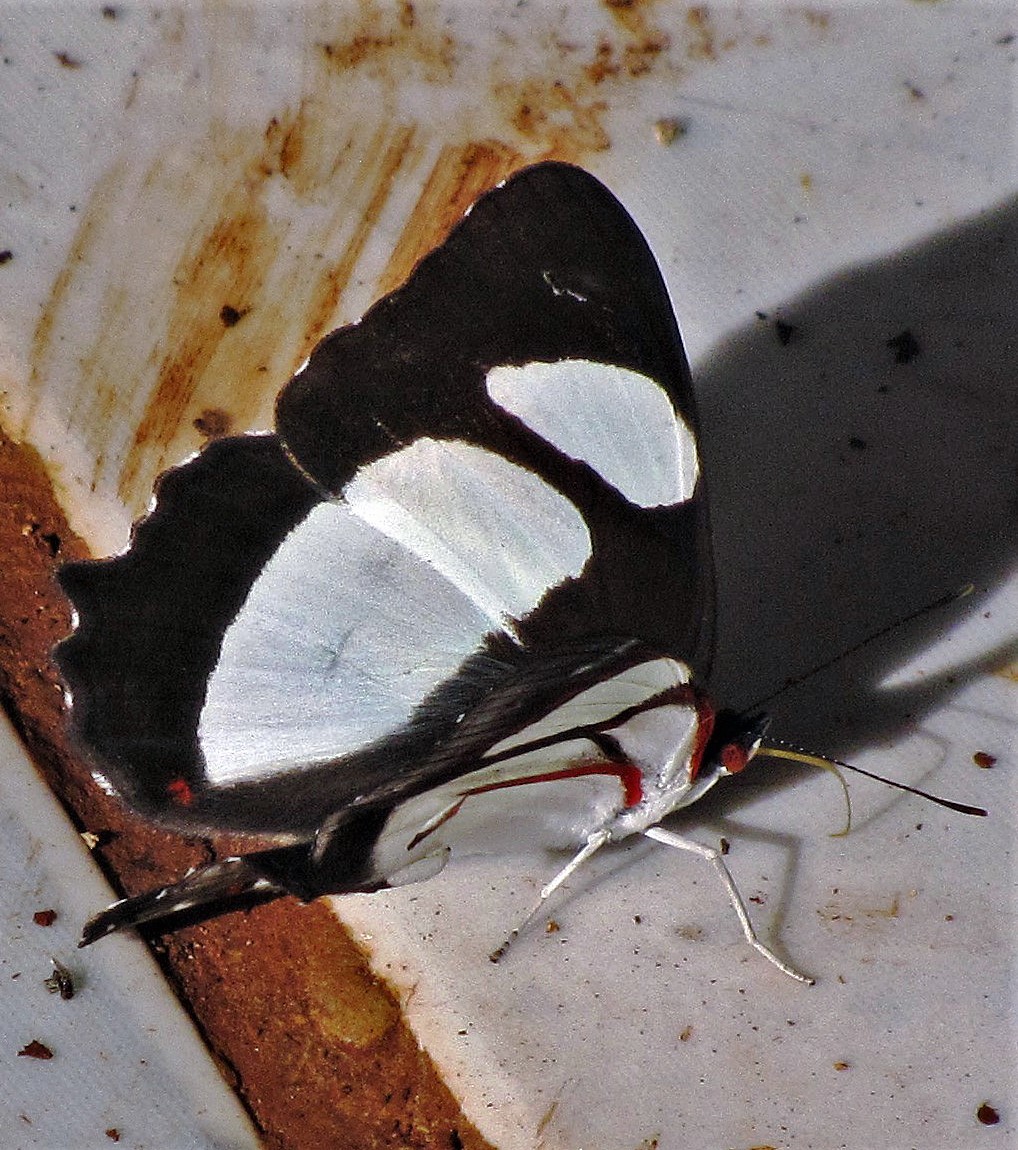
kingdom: Animalia
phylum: Arthropoda
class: Insecta
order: Lepidoptera
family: Nymphalidae
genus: Pyrrhogyra
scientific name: Pyrrhogyra neaerea
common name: Leading red-ring
